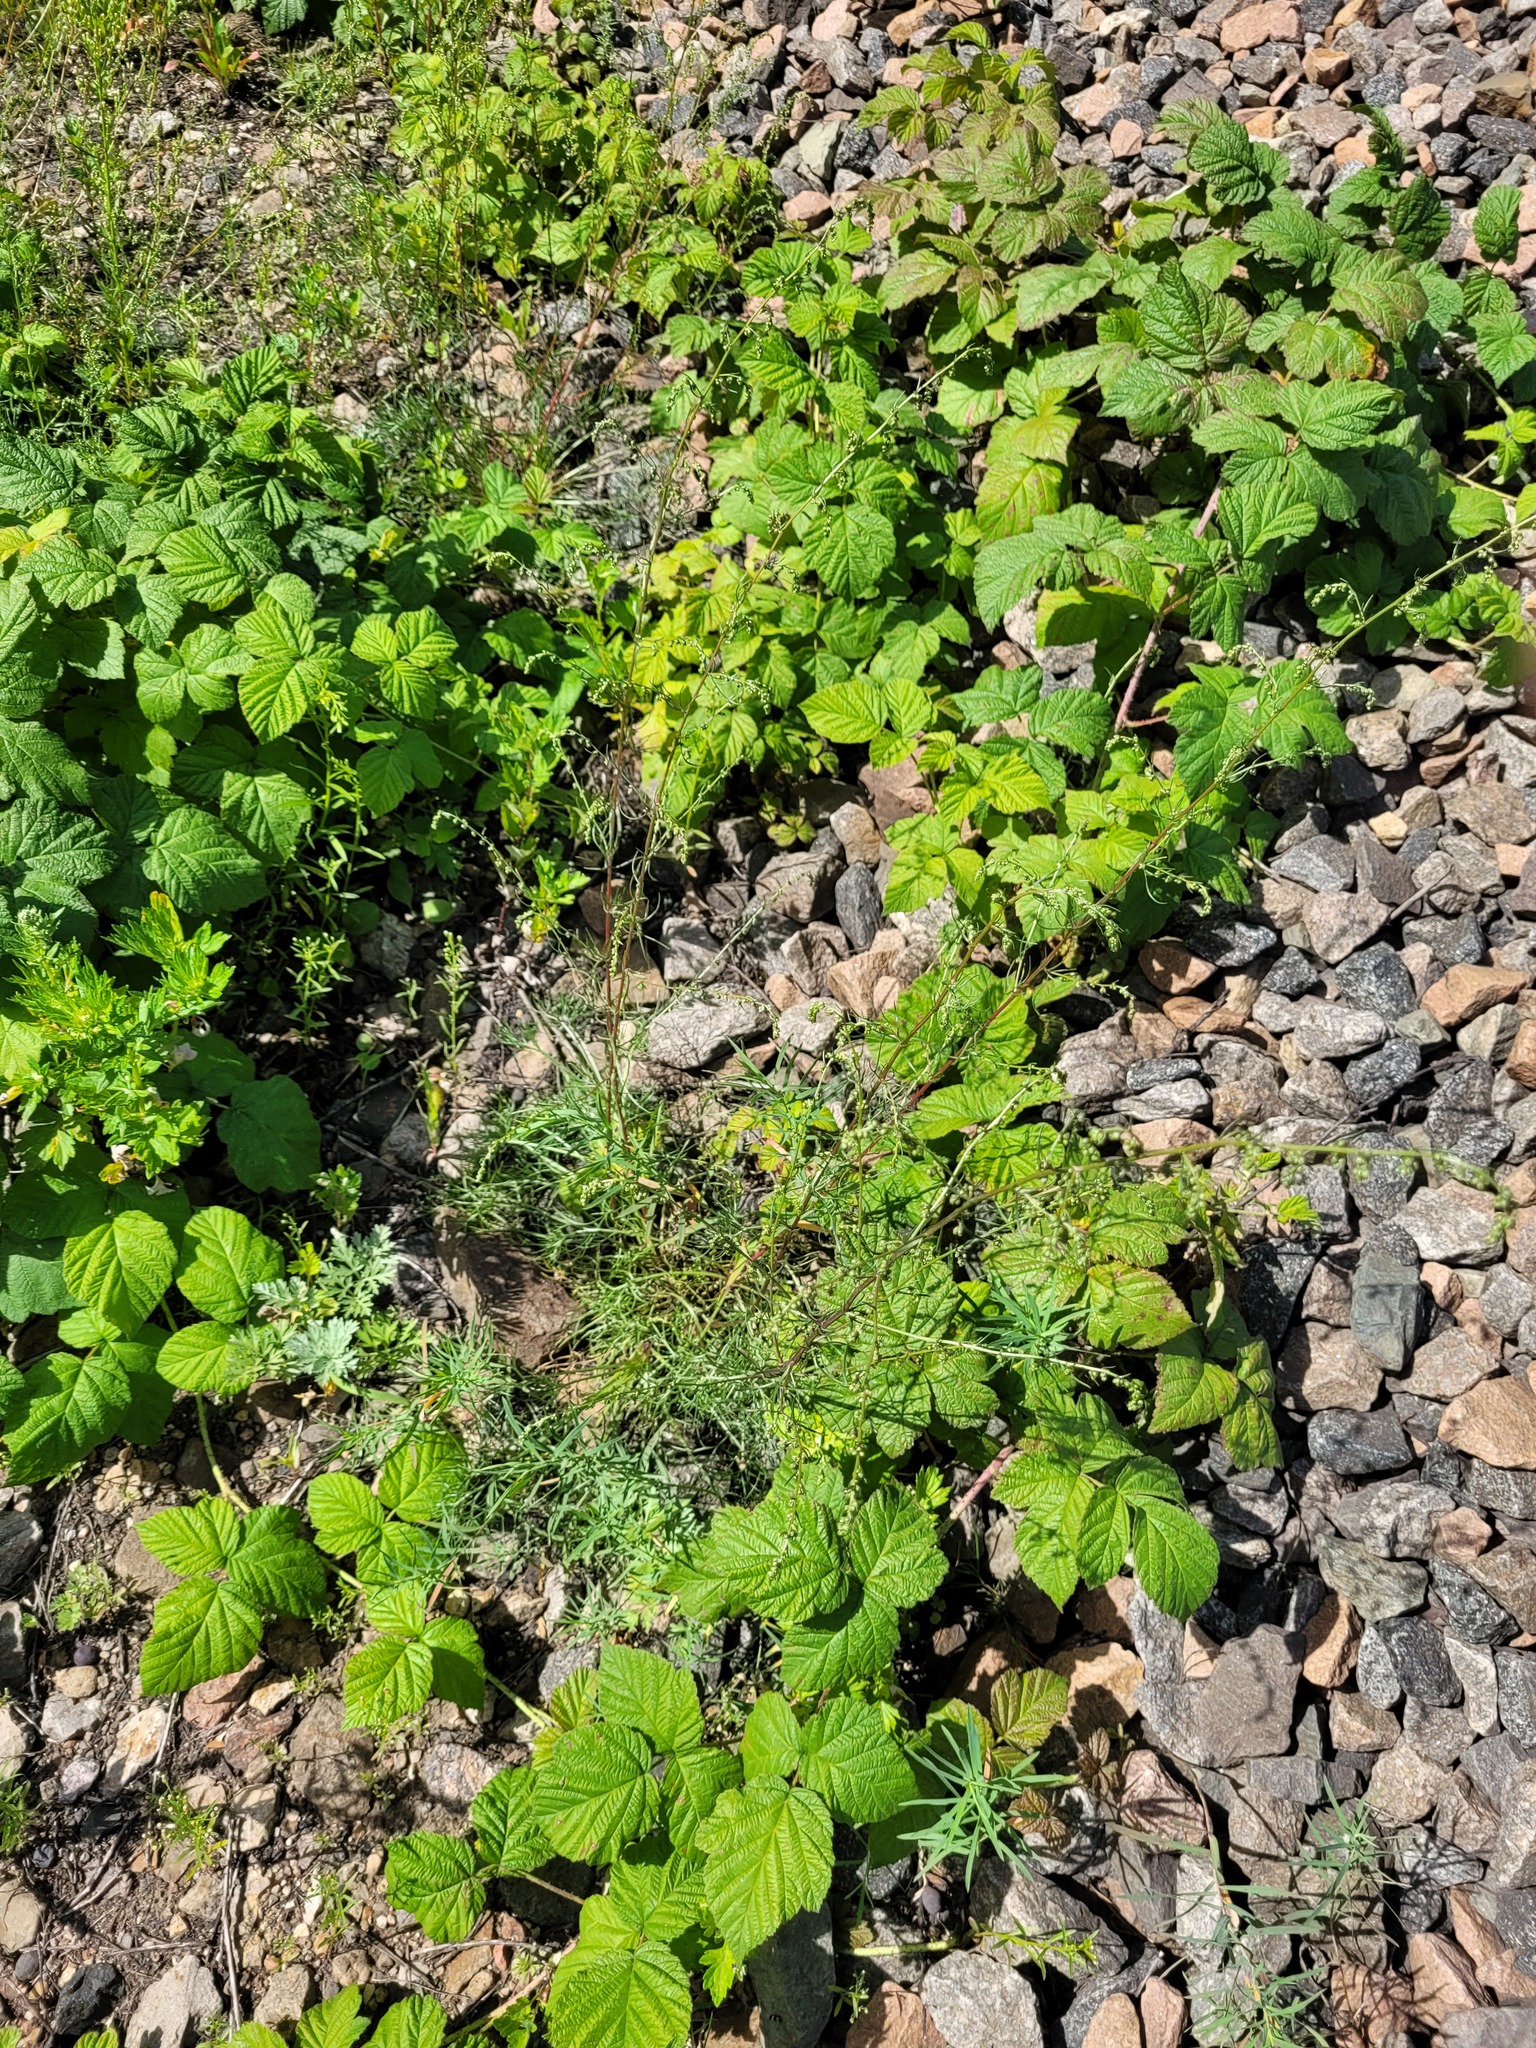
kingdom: Plantae
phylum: Tracheophyta
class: Magnoliopsida
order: Asterales
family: Asteraceae
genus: Artemisia
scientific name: Artemisia campestris
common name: Field wormwood
